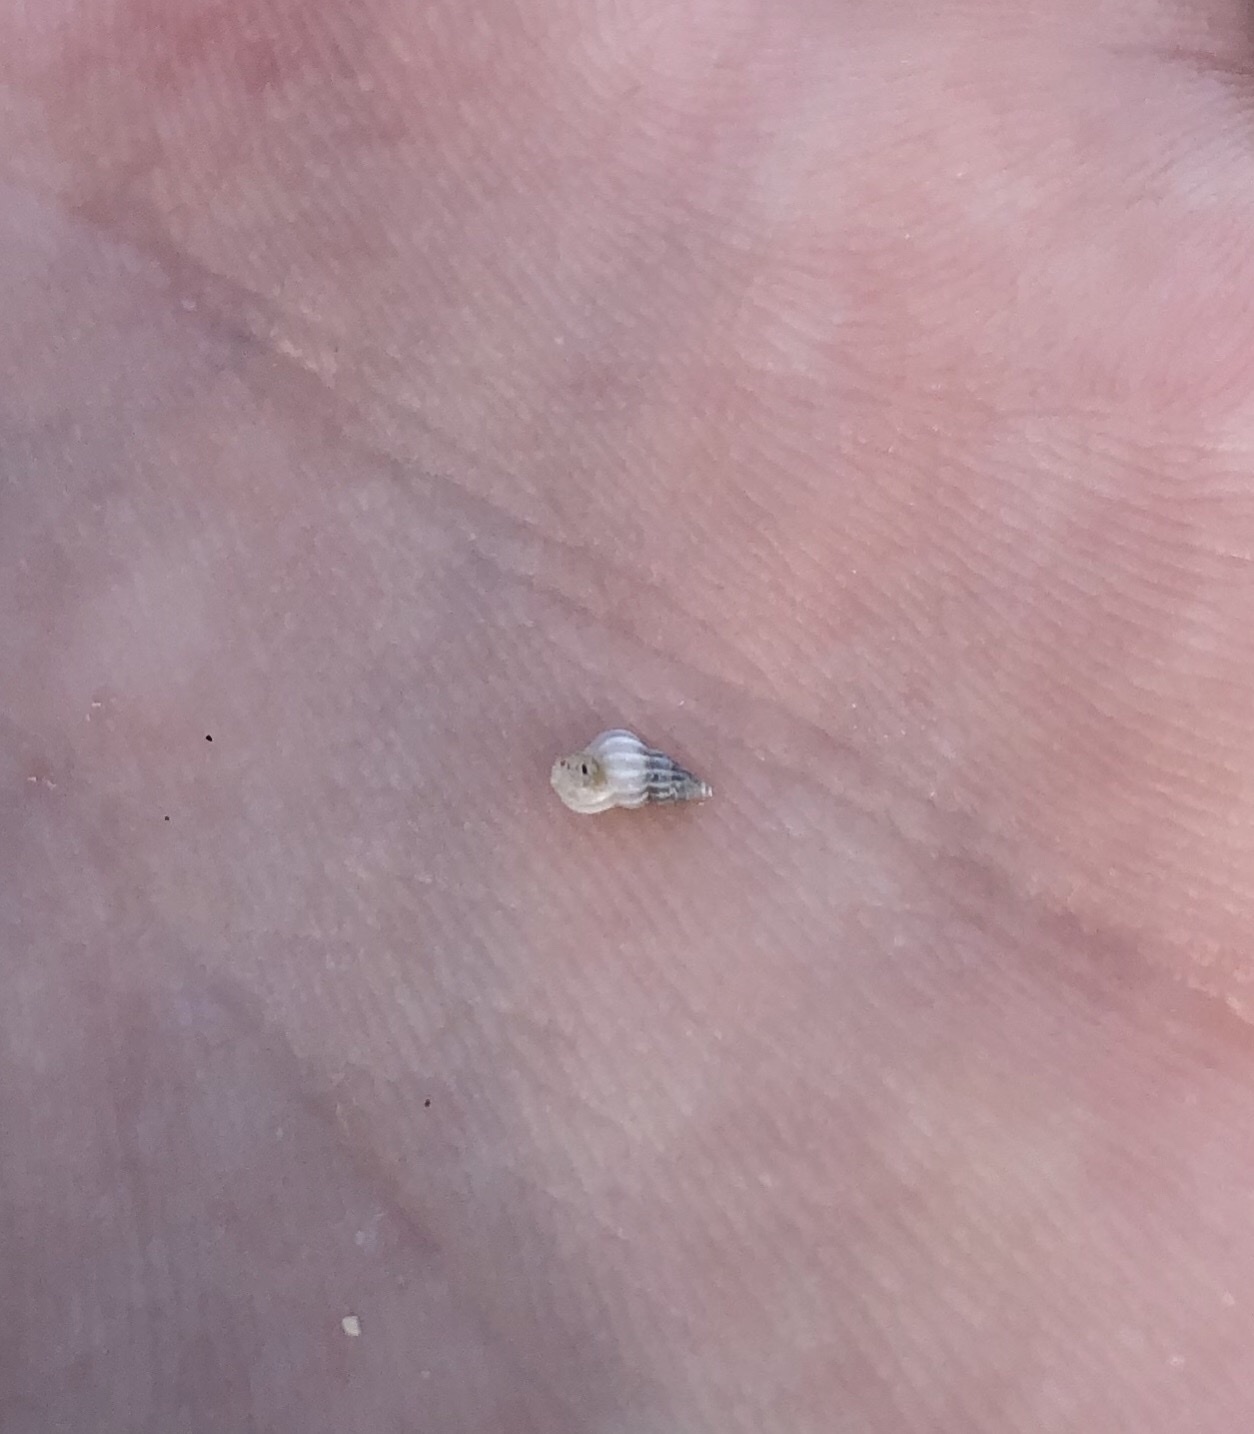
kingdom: Animalia
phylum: Mollusca
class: Gastropoda
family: Epitoniidae
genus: Epitonium
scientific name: Epitonium albidum
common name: Bladed wentletrap
